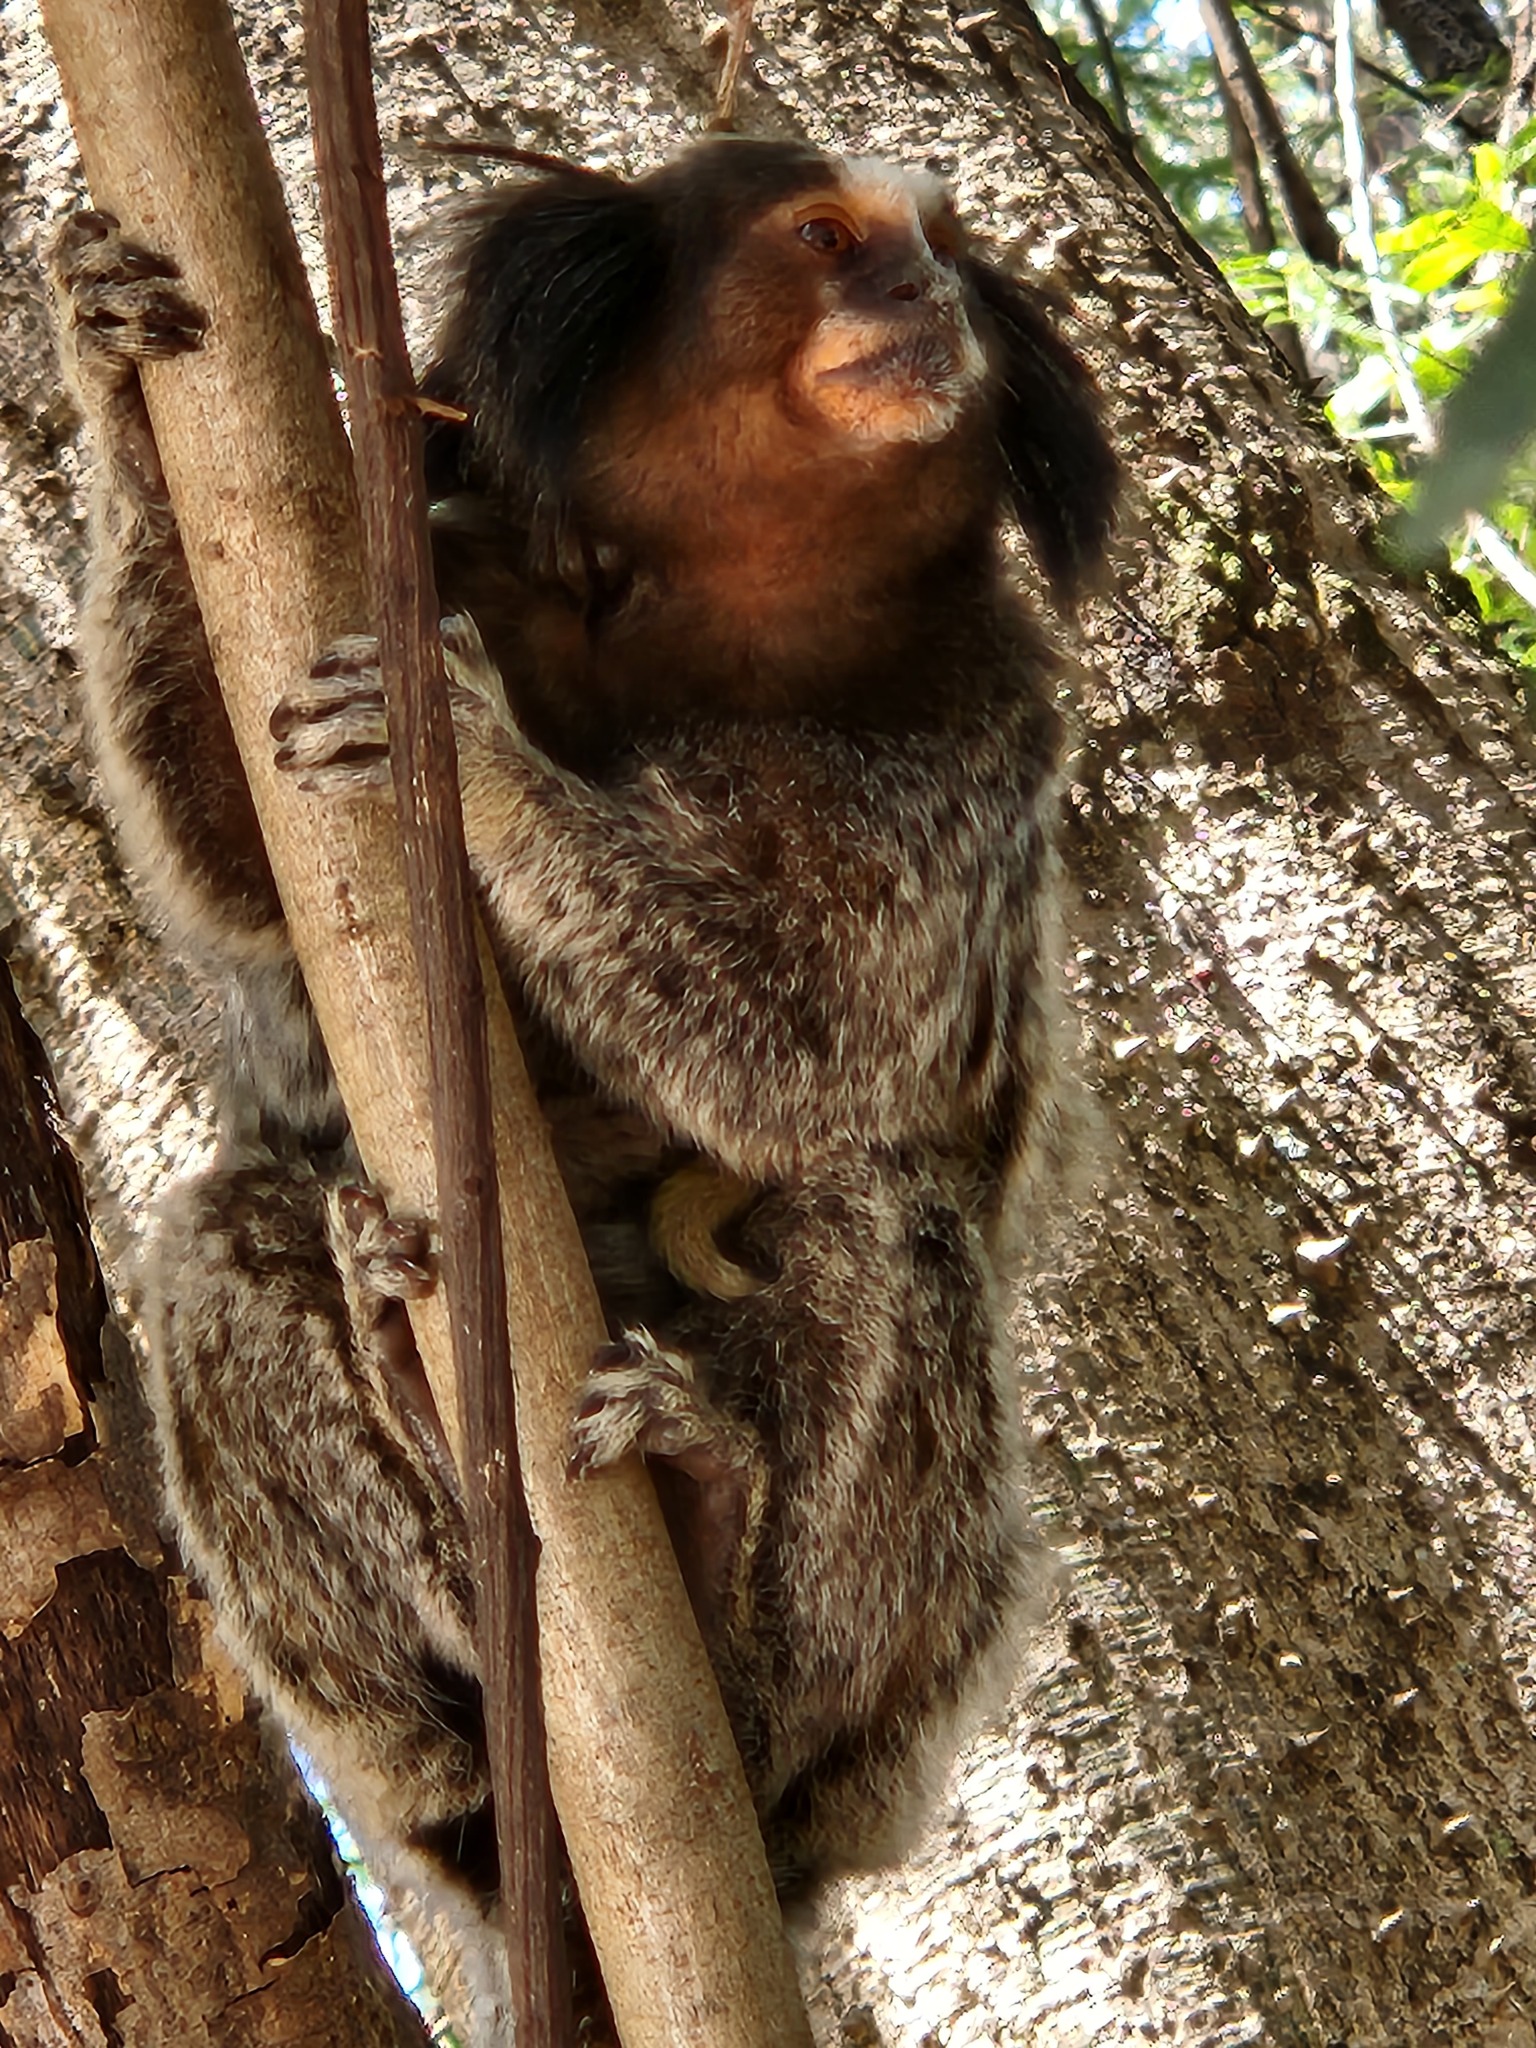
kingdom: Animalia
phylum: Chordata
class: Mammalia
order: Primates
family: Callitrichidae
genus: Callithrix
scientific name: Callithrix penicillata
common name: Black-tufted marmoset
